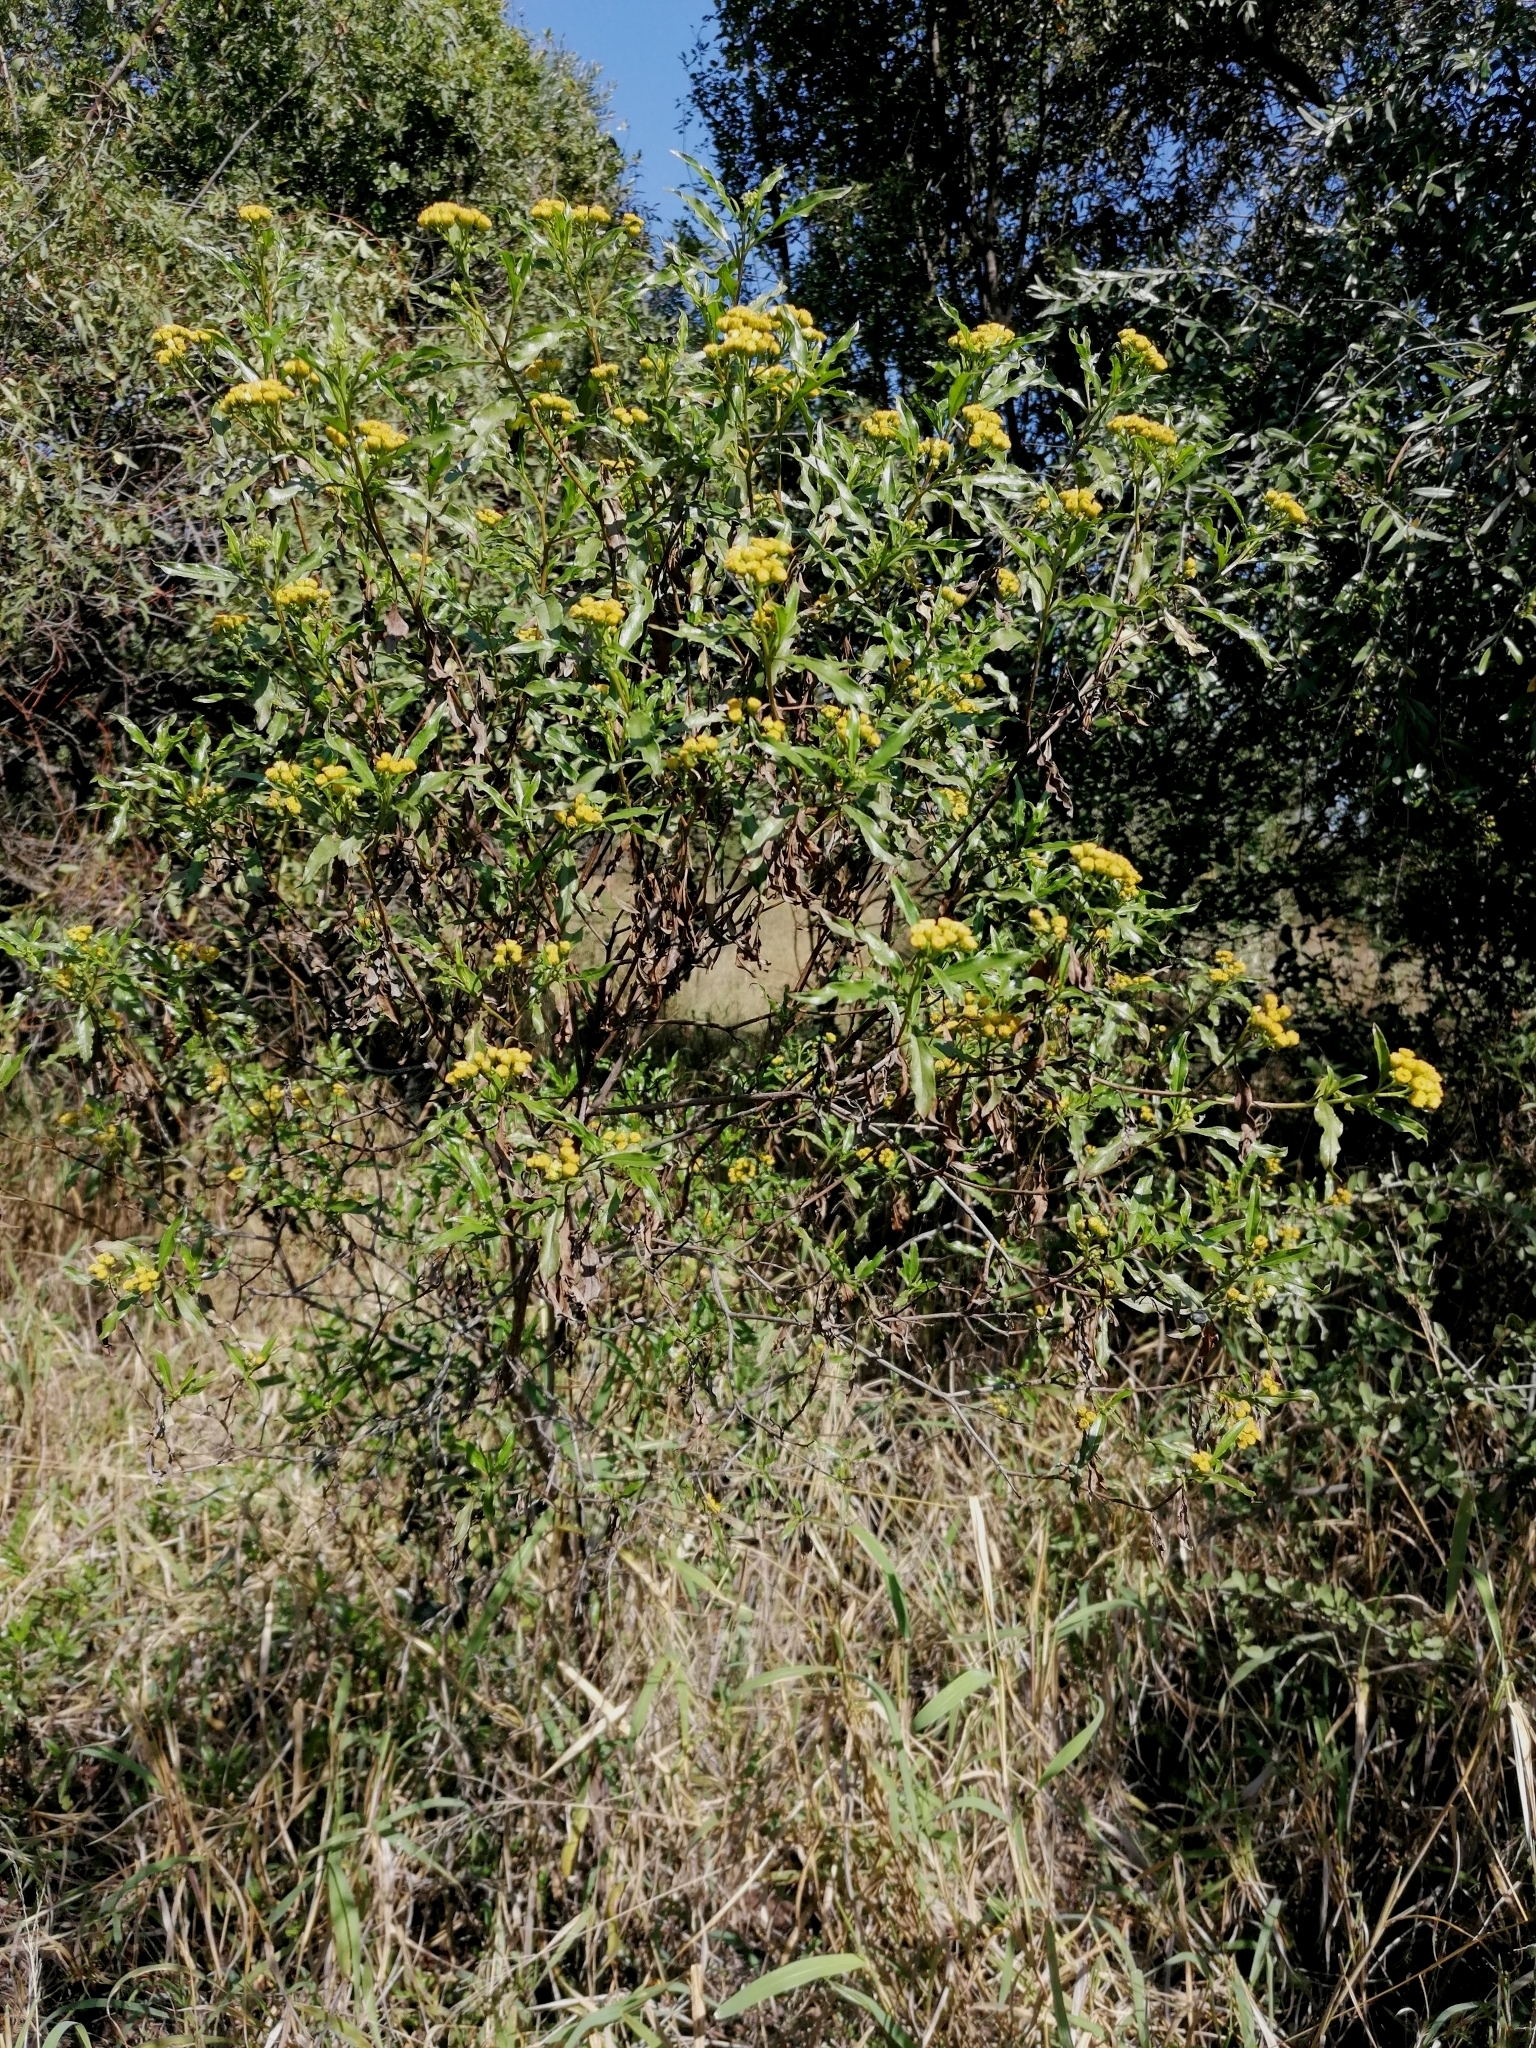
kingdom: Plantae
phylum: Tracheophyta
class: Magnoliopsida
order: Asterales
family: Asteraceae
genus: Psiadia
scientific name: Psiadia punctulata
